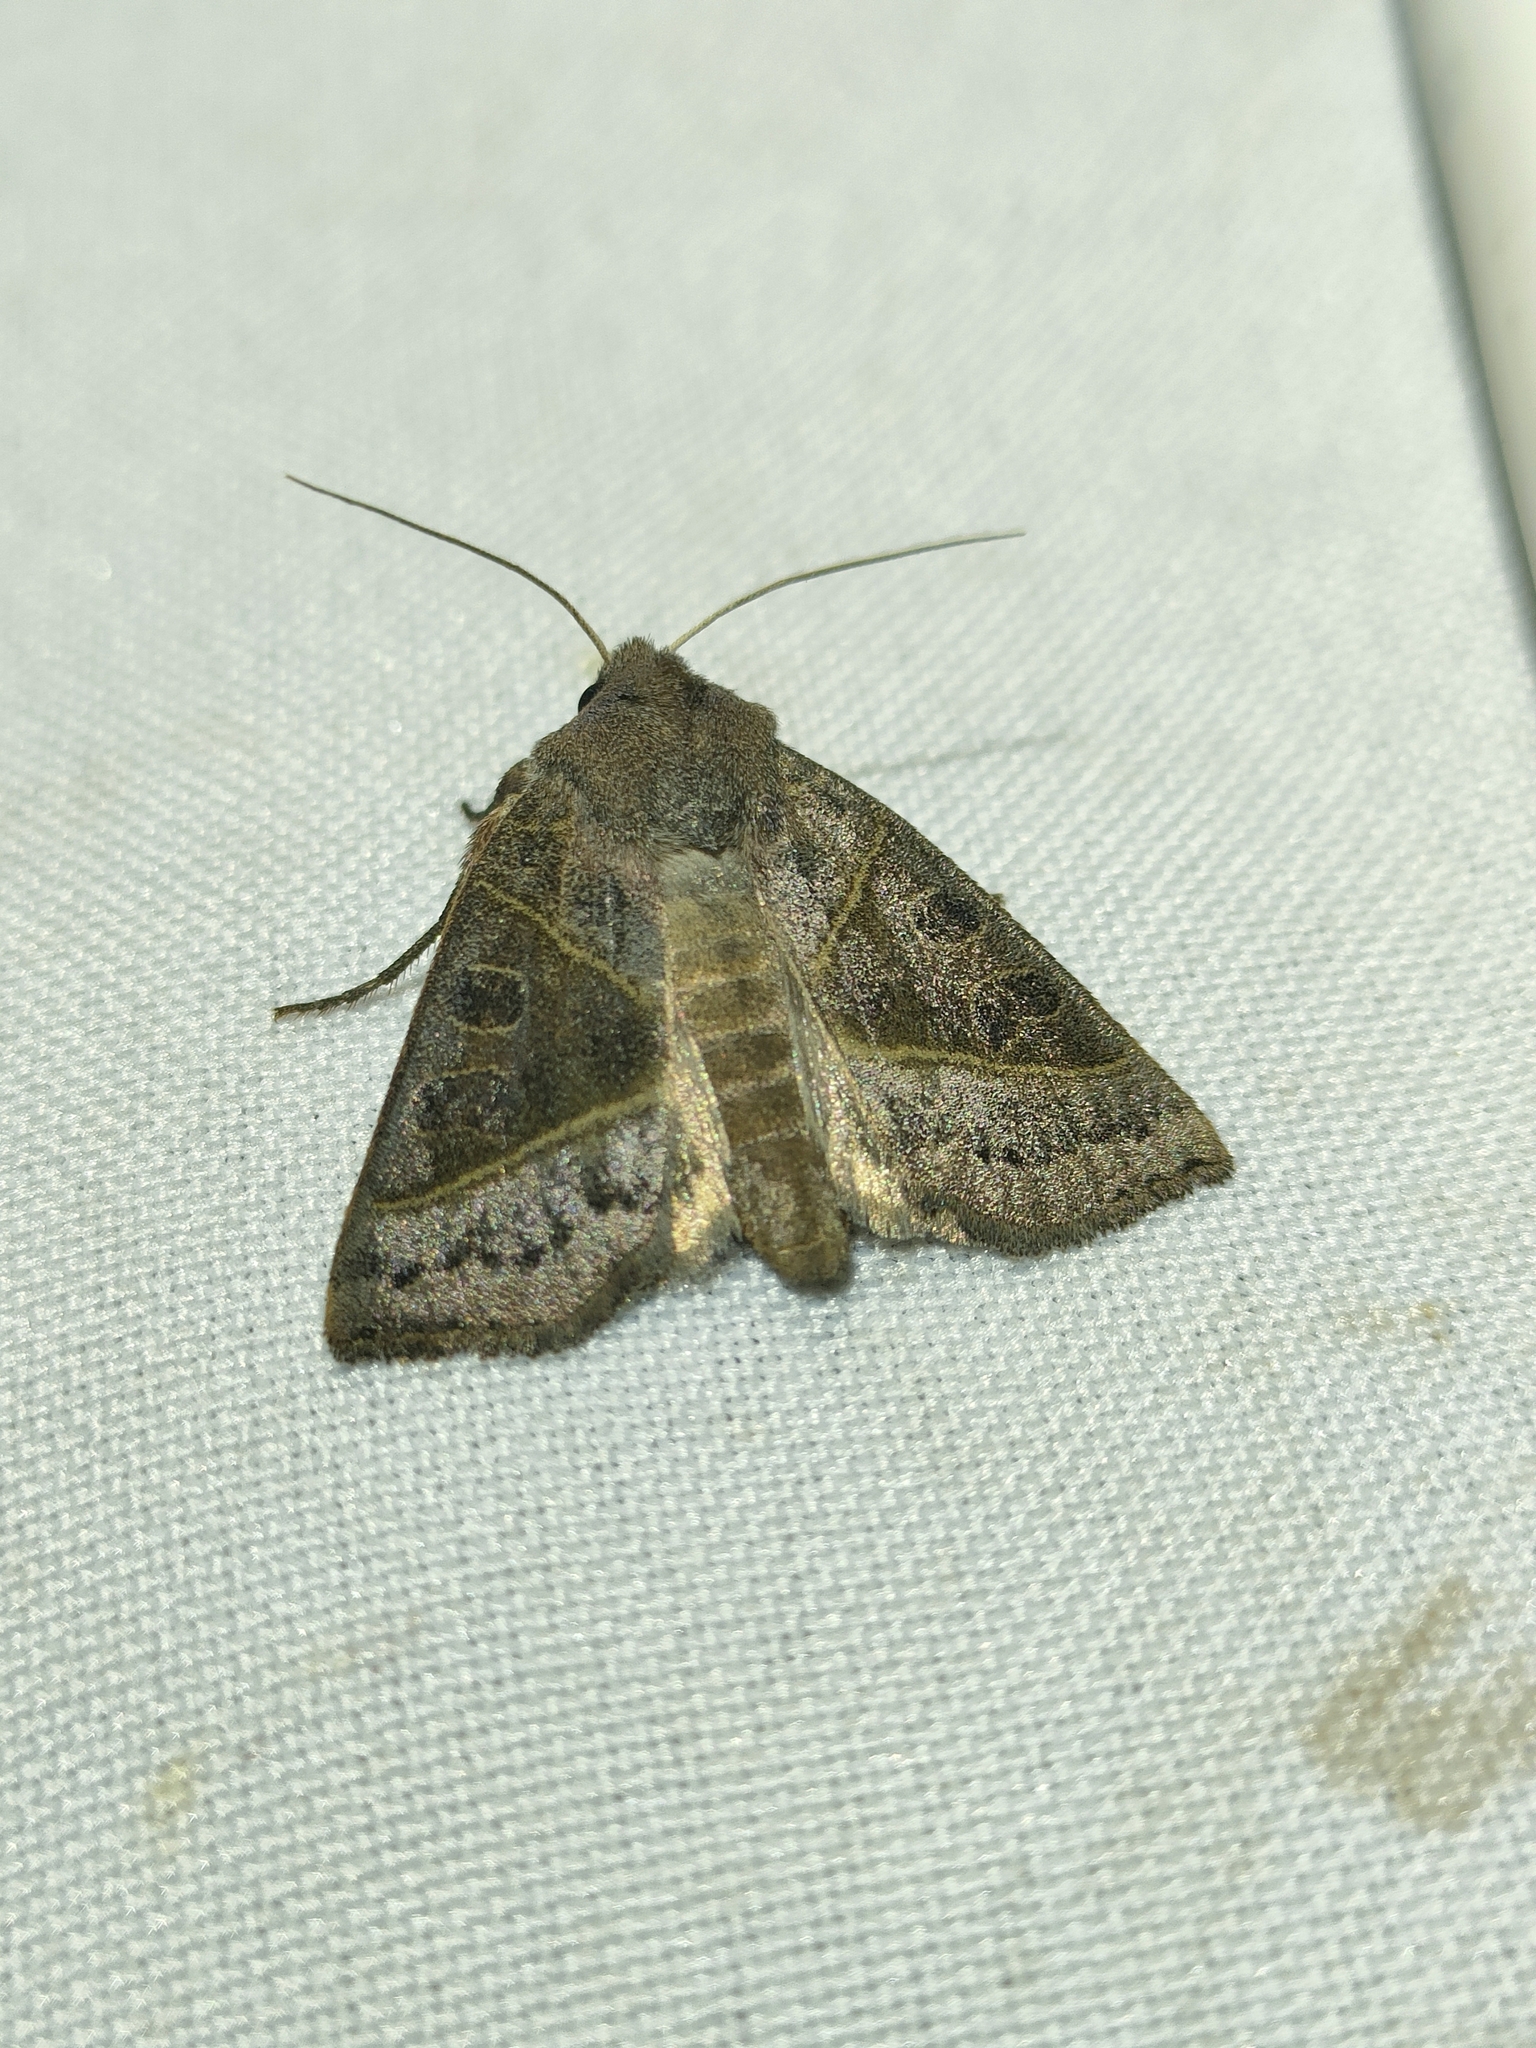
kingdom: Animalia
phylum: Arthropoda
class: Insecta
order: Lepidoptera
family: Noctuidae
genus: Mesogona
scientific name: Mesogona oxalina
